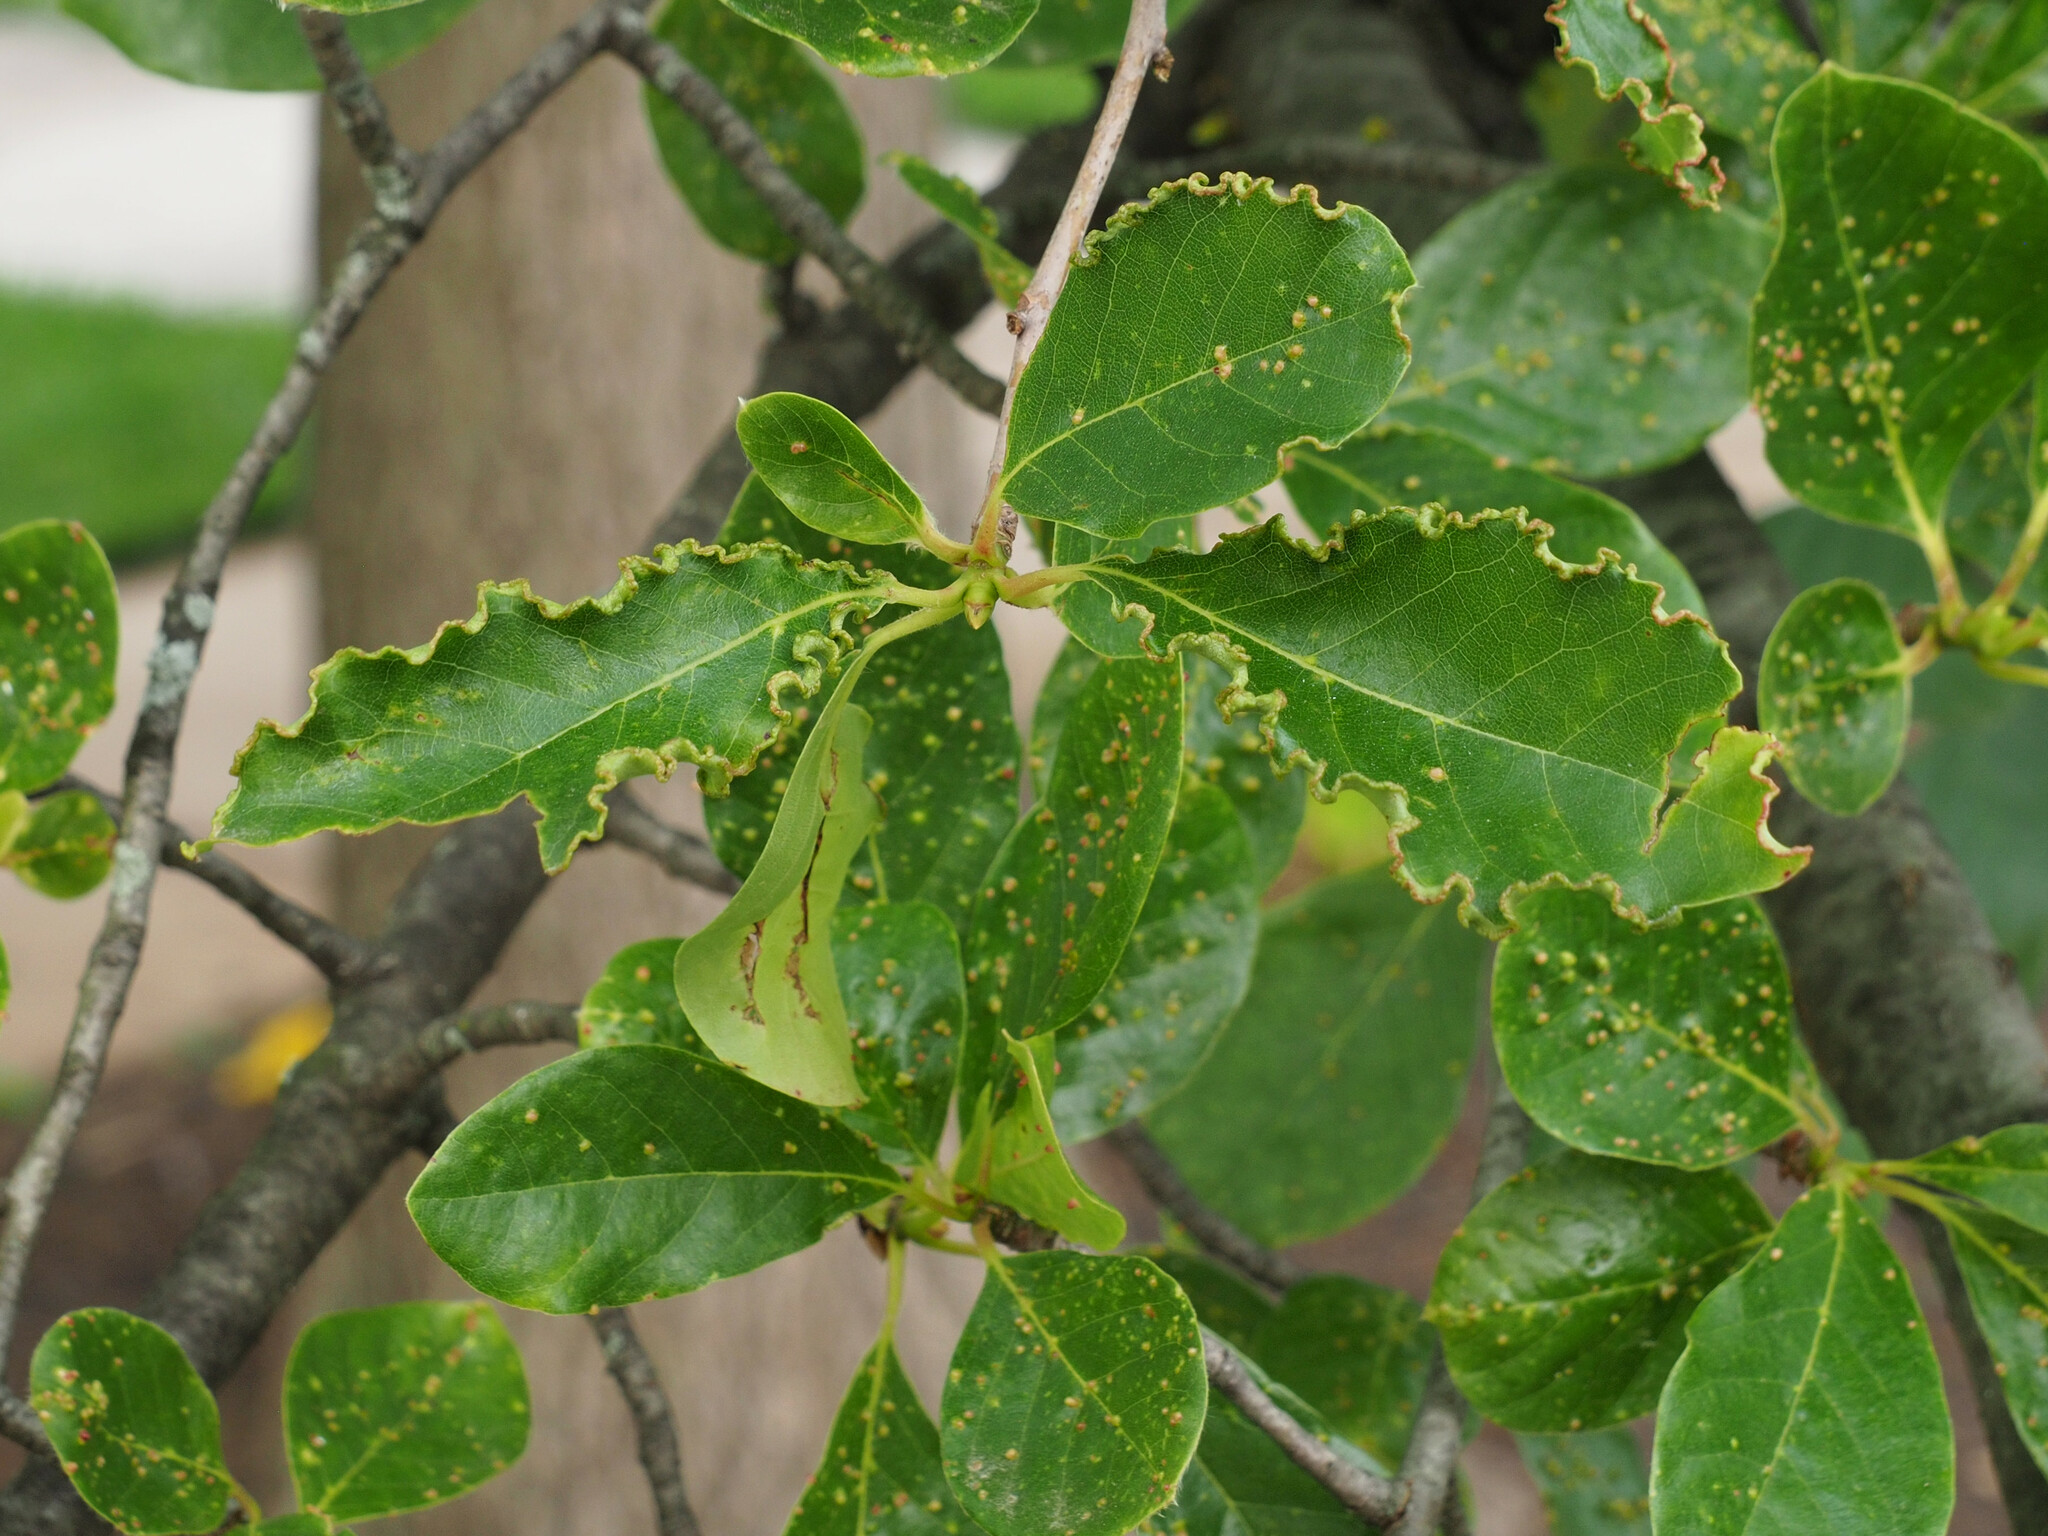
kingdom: Animalia
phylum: Arthropoda
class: Arachnida
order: Trombidiformes
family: Eriophyidae
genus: Aceria
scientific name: Aceria
